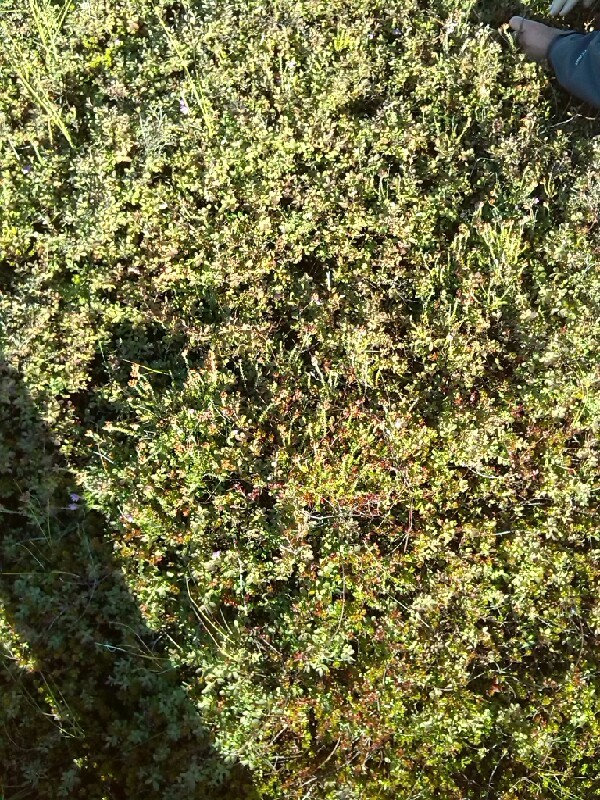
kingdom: Plantae
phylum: Tracheophyta
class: Magnoliopsida
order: Ericales
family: Ericaceae
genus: Vaccinium
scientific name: Vaccinium uliginosum
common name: Bog bilberry
